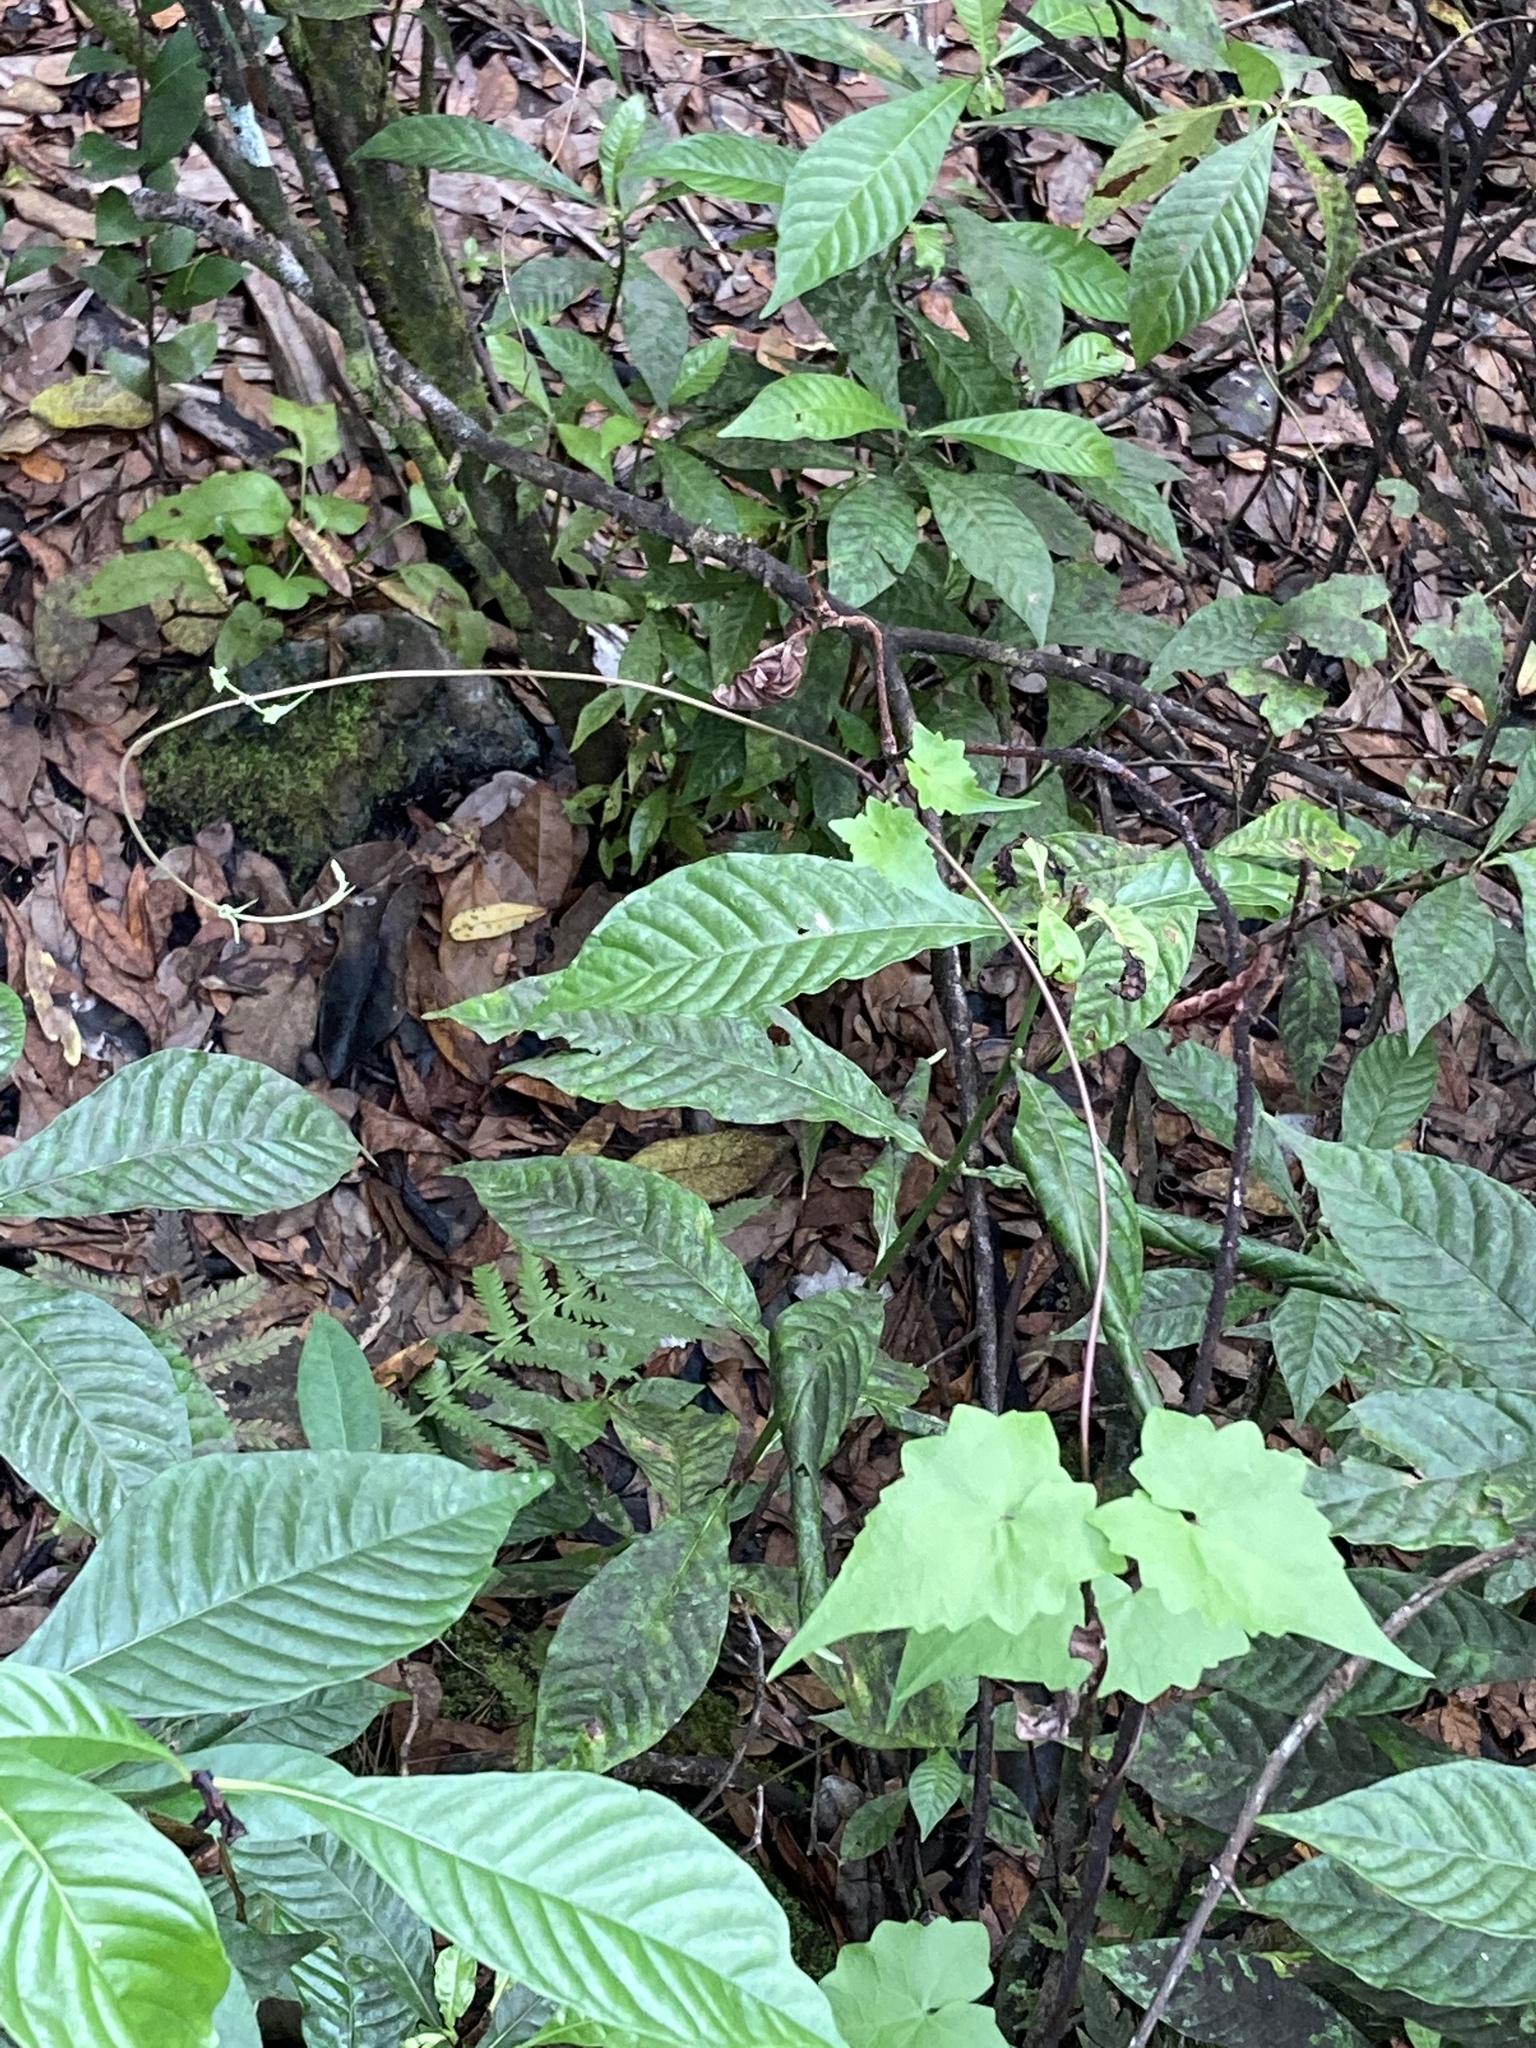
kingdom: Plantae
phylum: Tracheophyta
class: Magnoliopsida
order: Asterales
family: Asteraceae
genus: Mikania
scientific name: Mikania scandens
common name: Climbing hempvine
